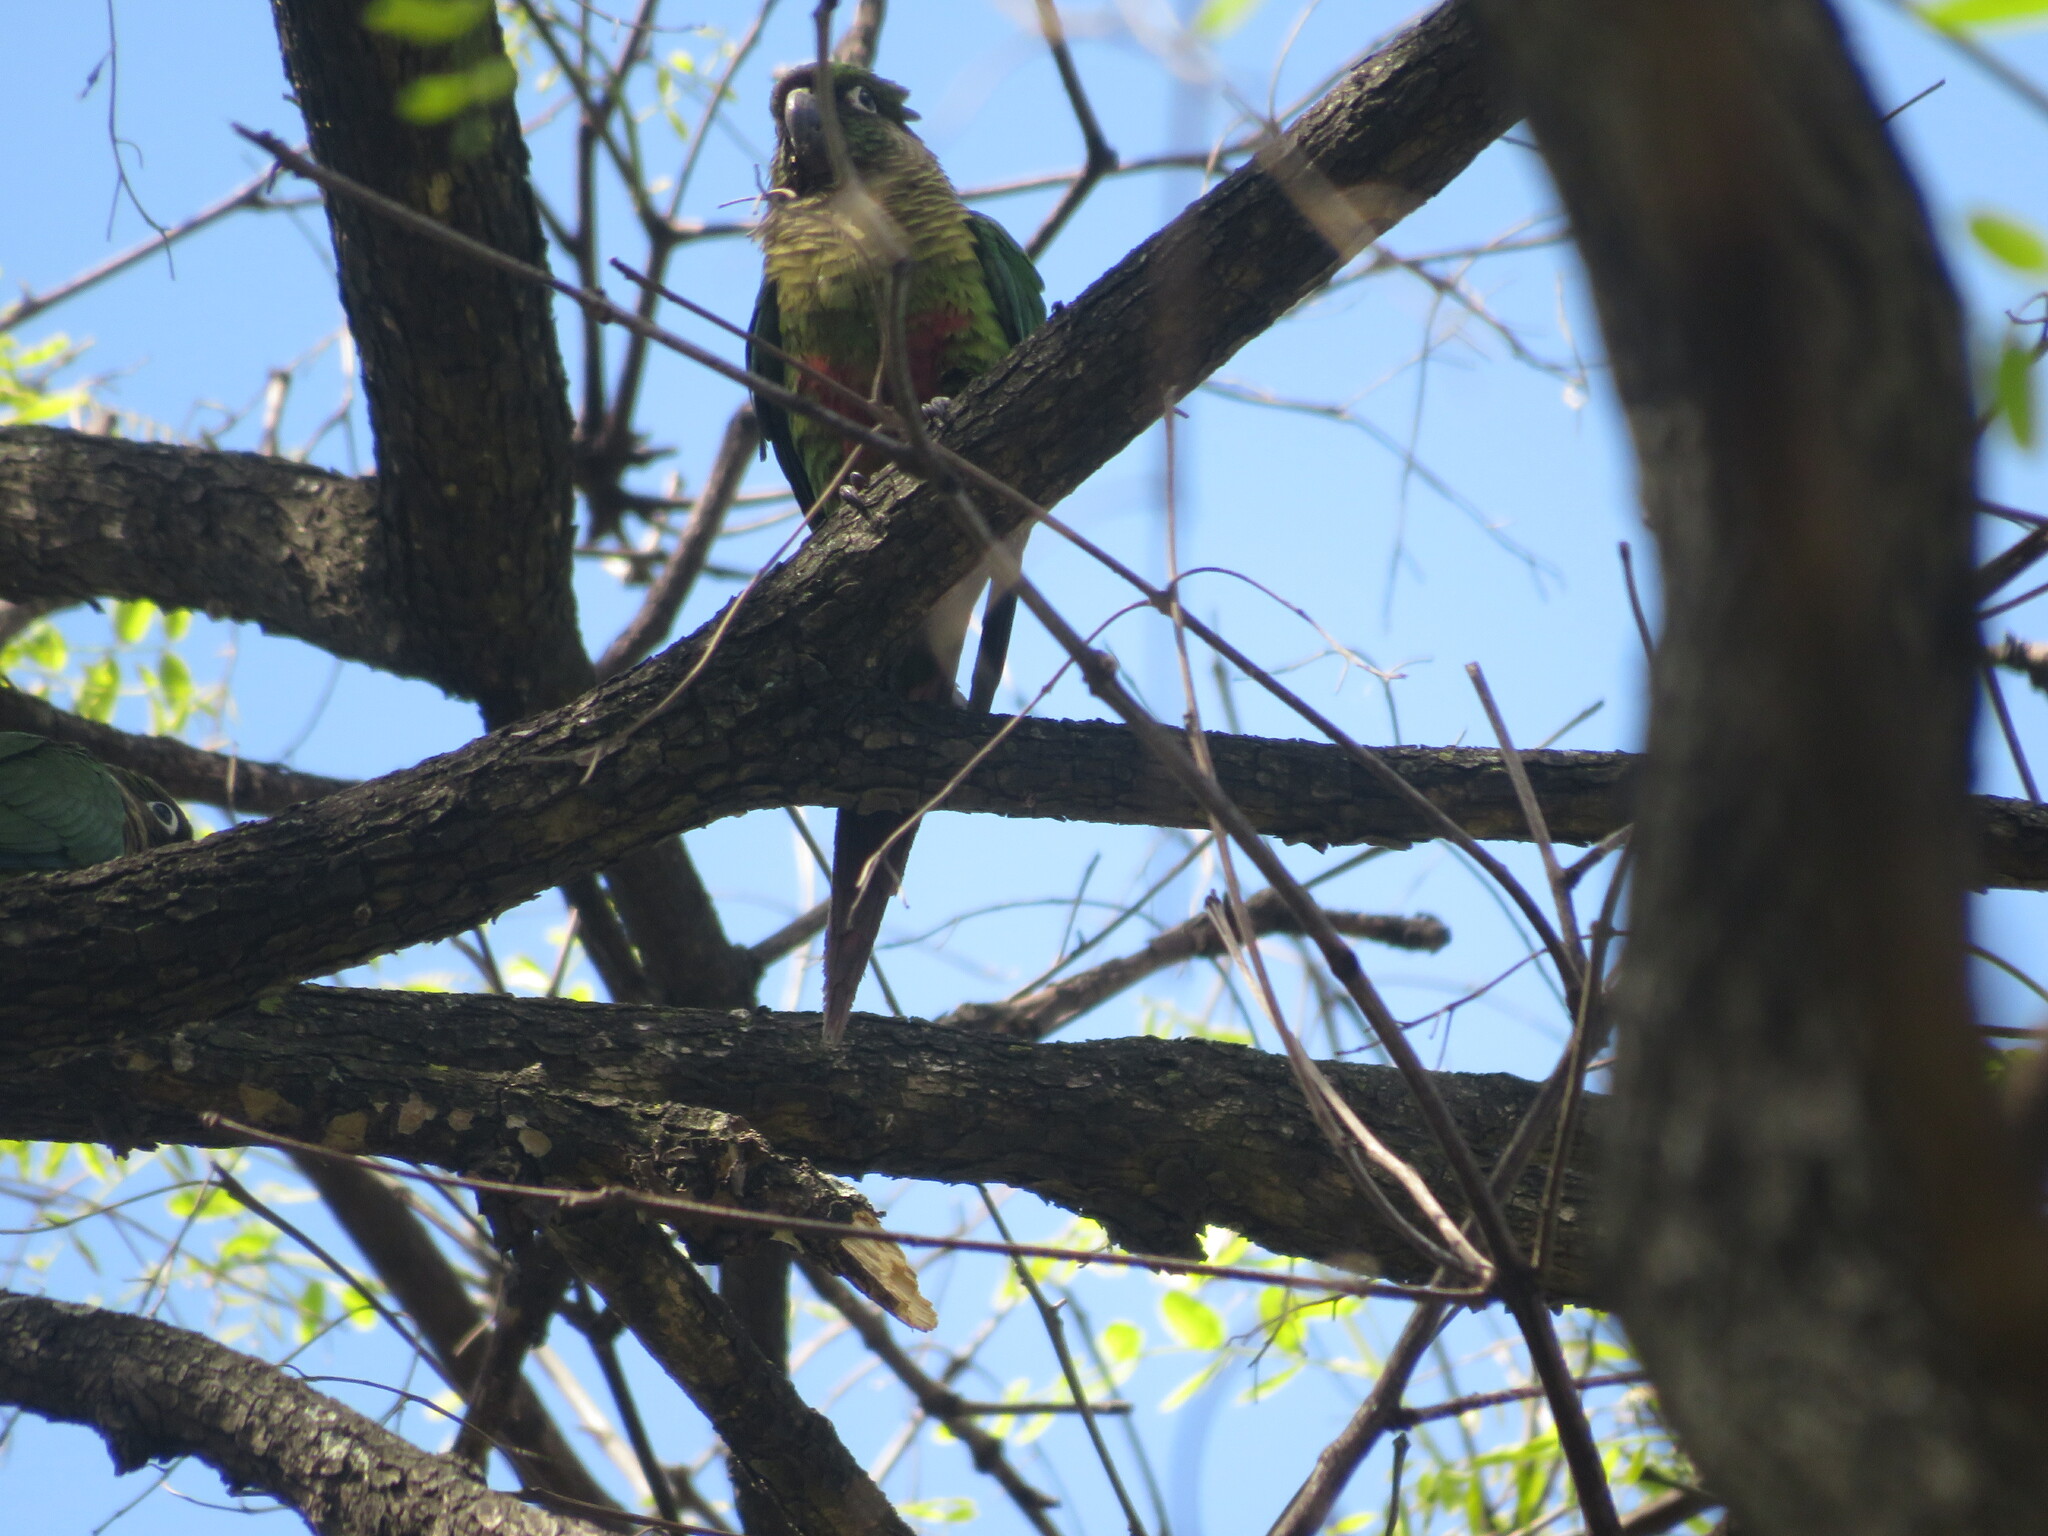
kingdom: Animalia
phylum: Chordata
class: Aves
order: Psittaciformes
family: Psittacidae
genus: Pyrrhura
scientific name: Pyrrhura frontalis
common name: Maroon-bellied parakeet
